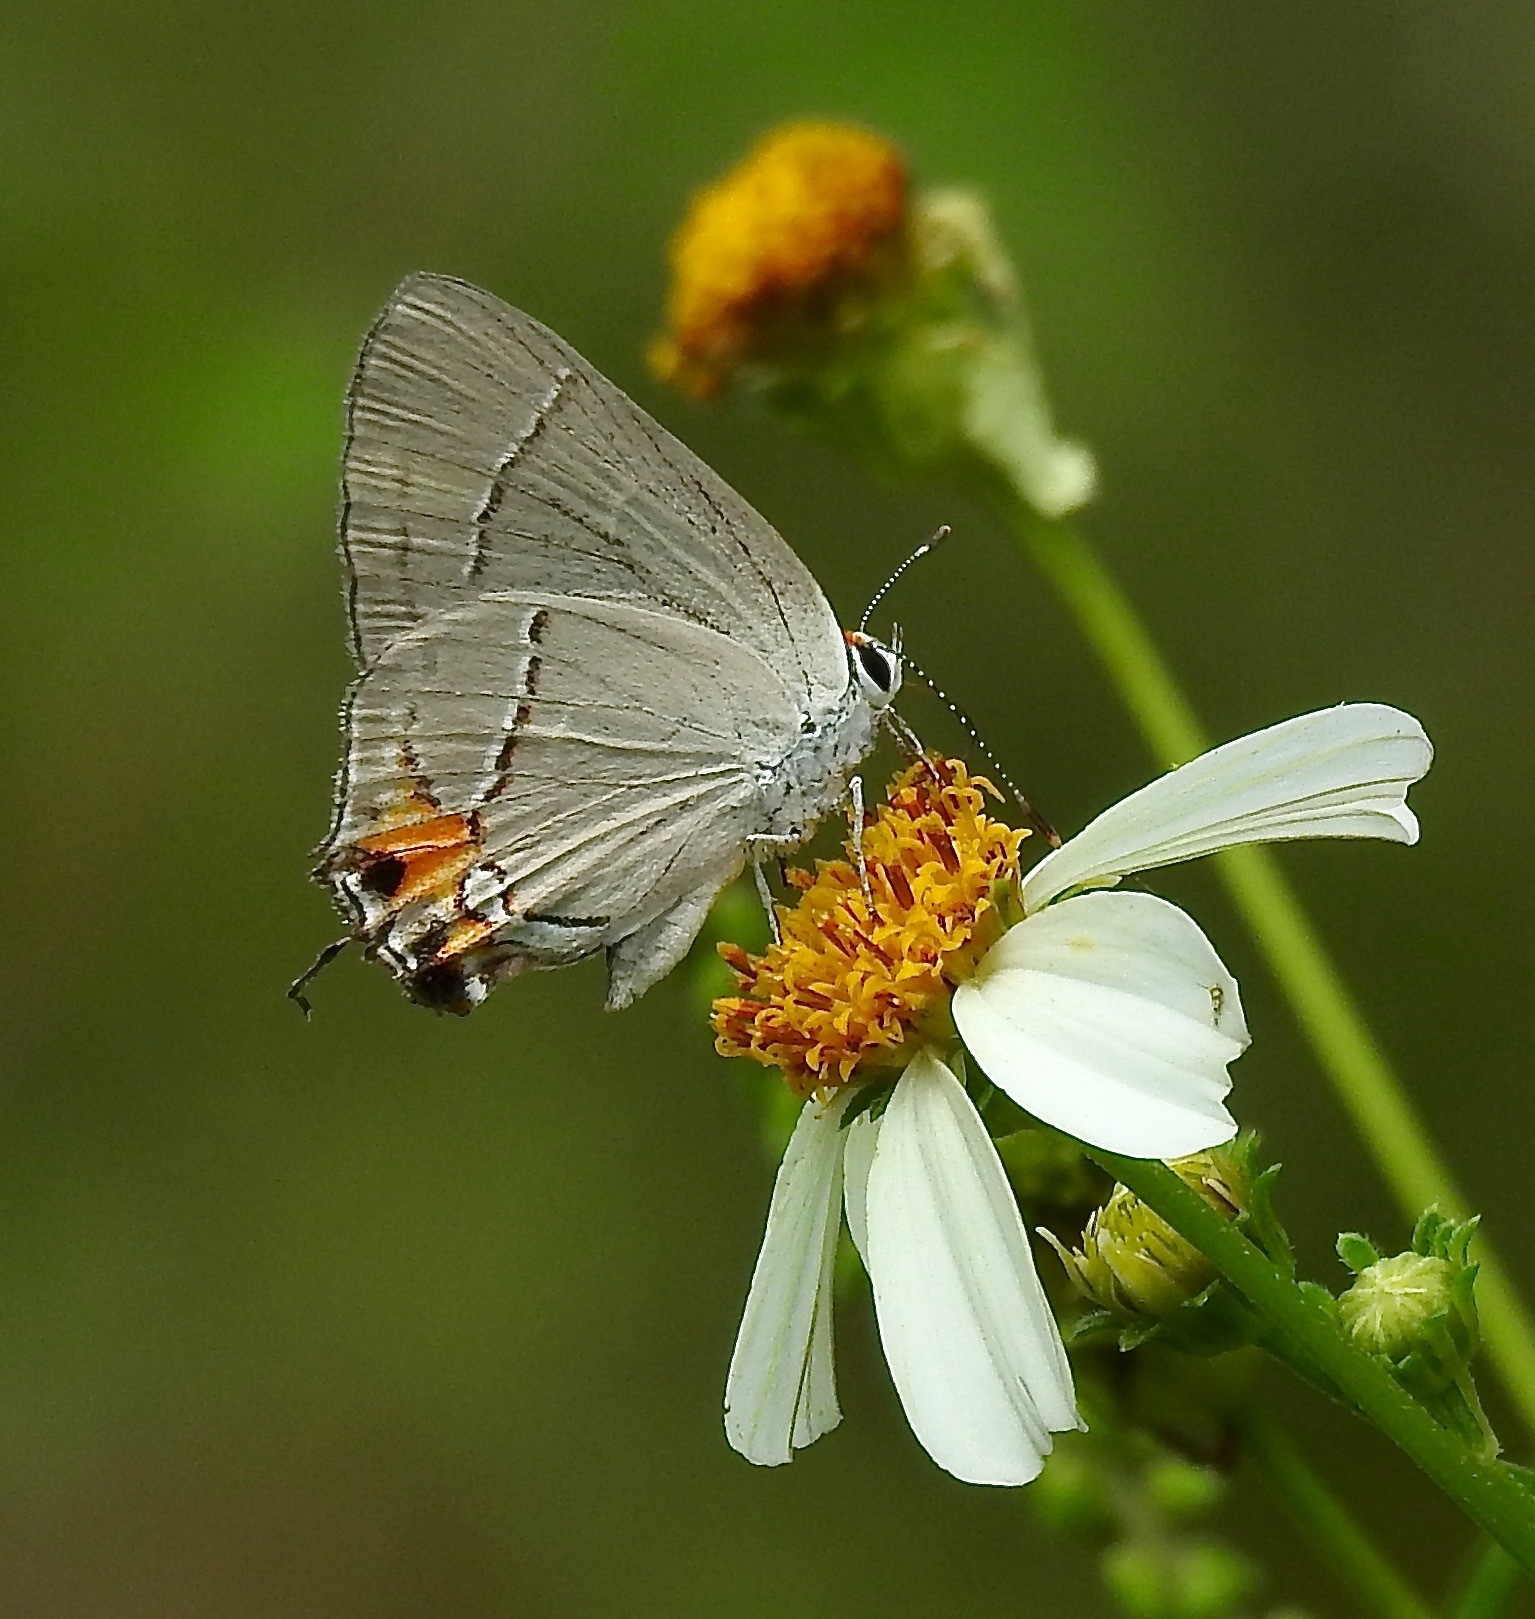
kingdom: Animalia
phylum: Arthropoda
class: Insecta
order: Lepidoptera
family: Lycaenidae
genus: Strymon
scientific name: Strymon melinus
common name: Gray hairstreak
